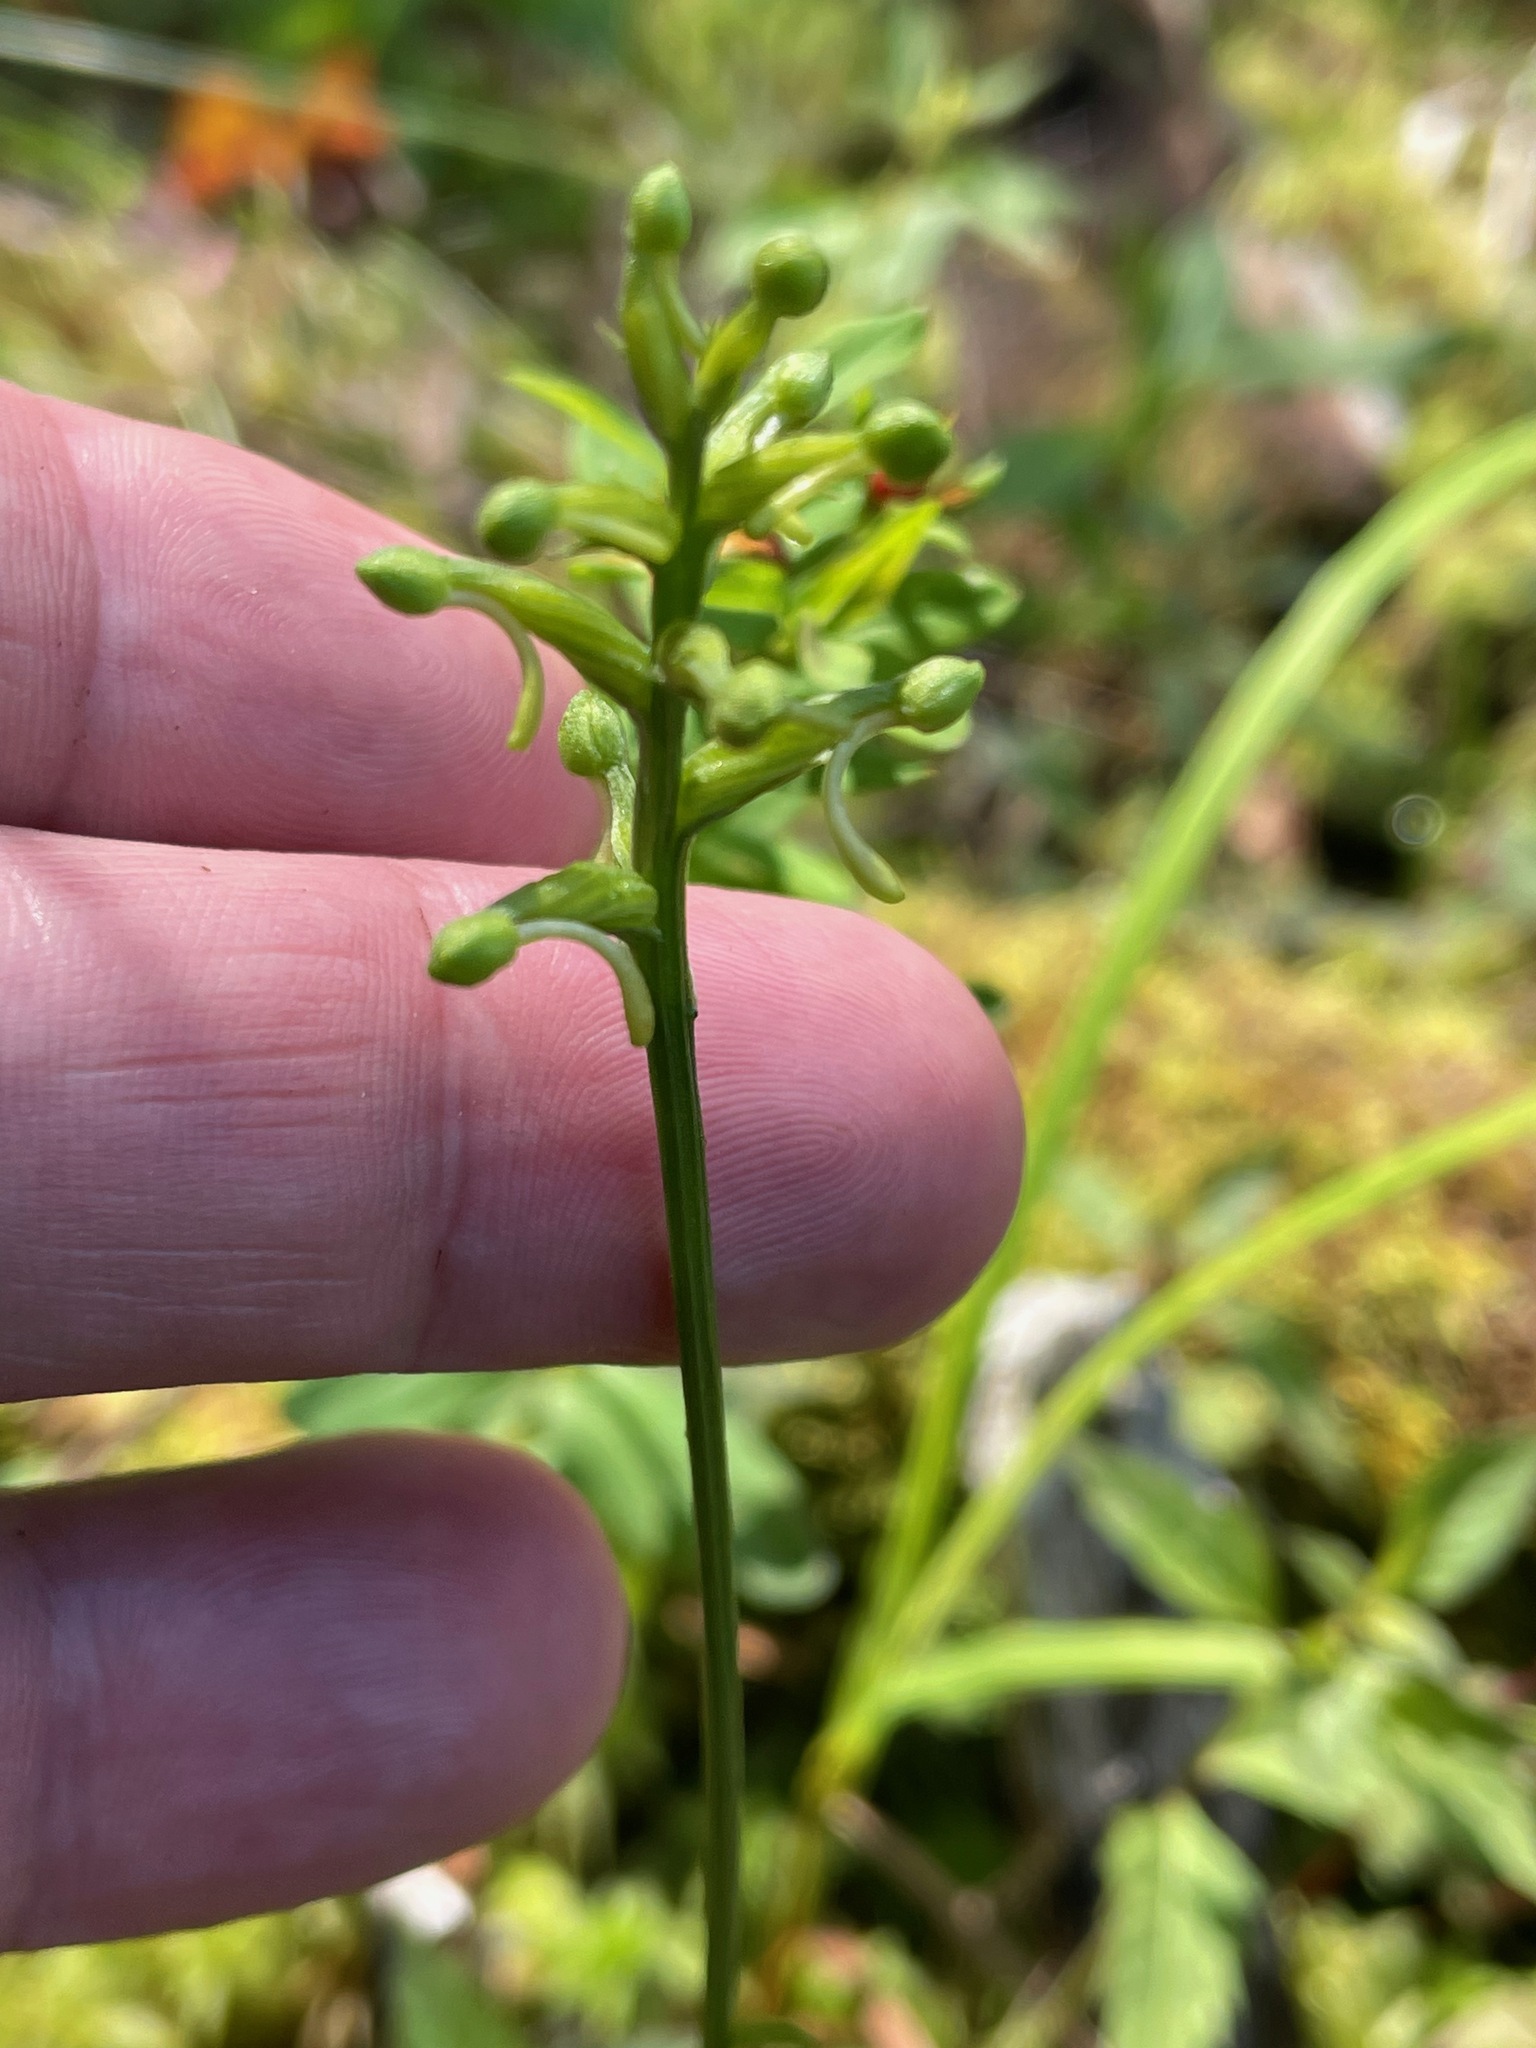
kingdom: Plantae
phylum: Tracheophyta
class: Liliopsida
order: Asparagales
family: Orchidaceae
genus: Platanthera
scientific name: Platanthera clavellata
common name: Club-spur orchid
